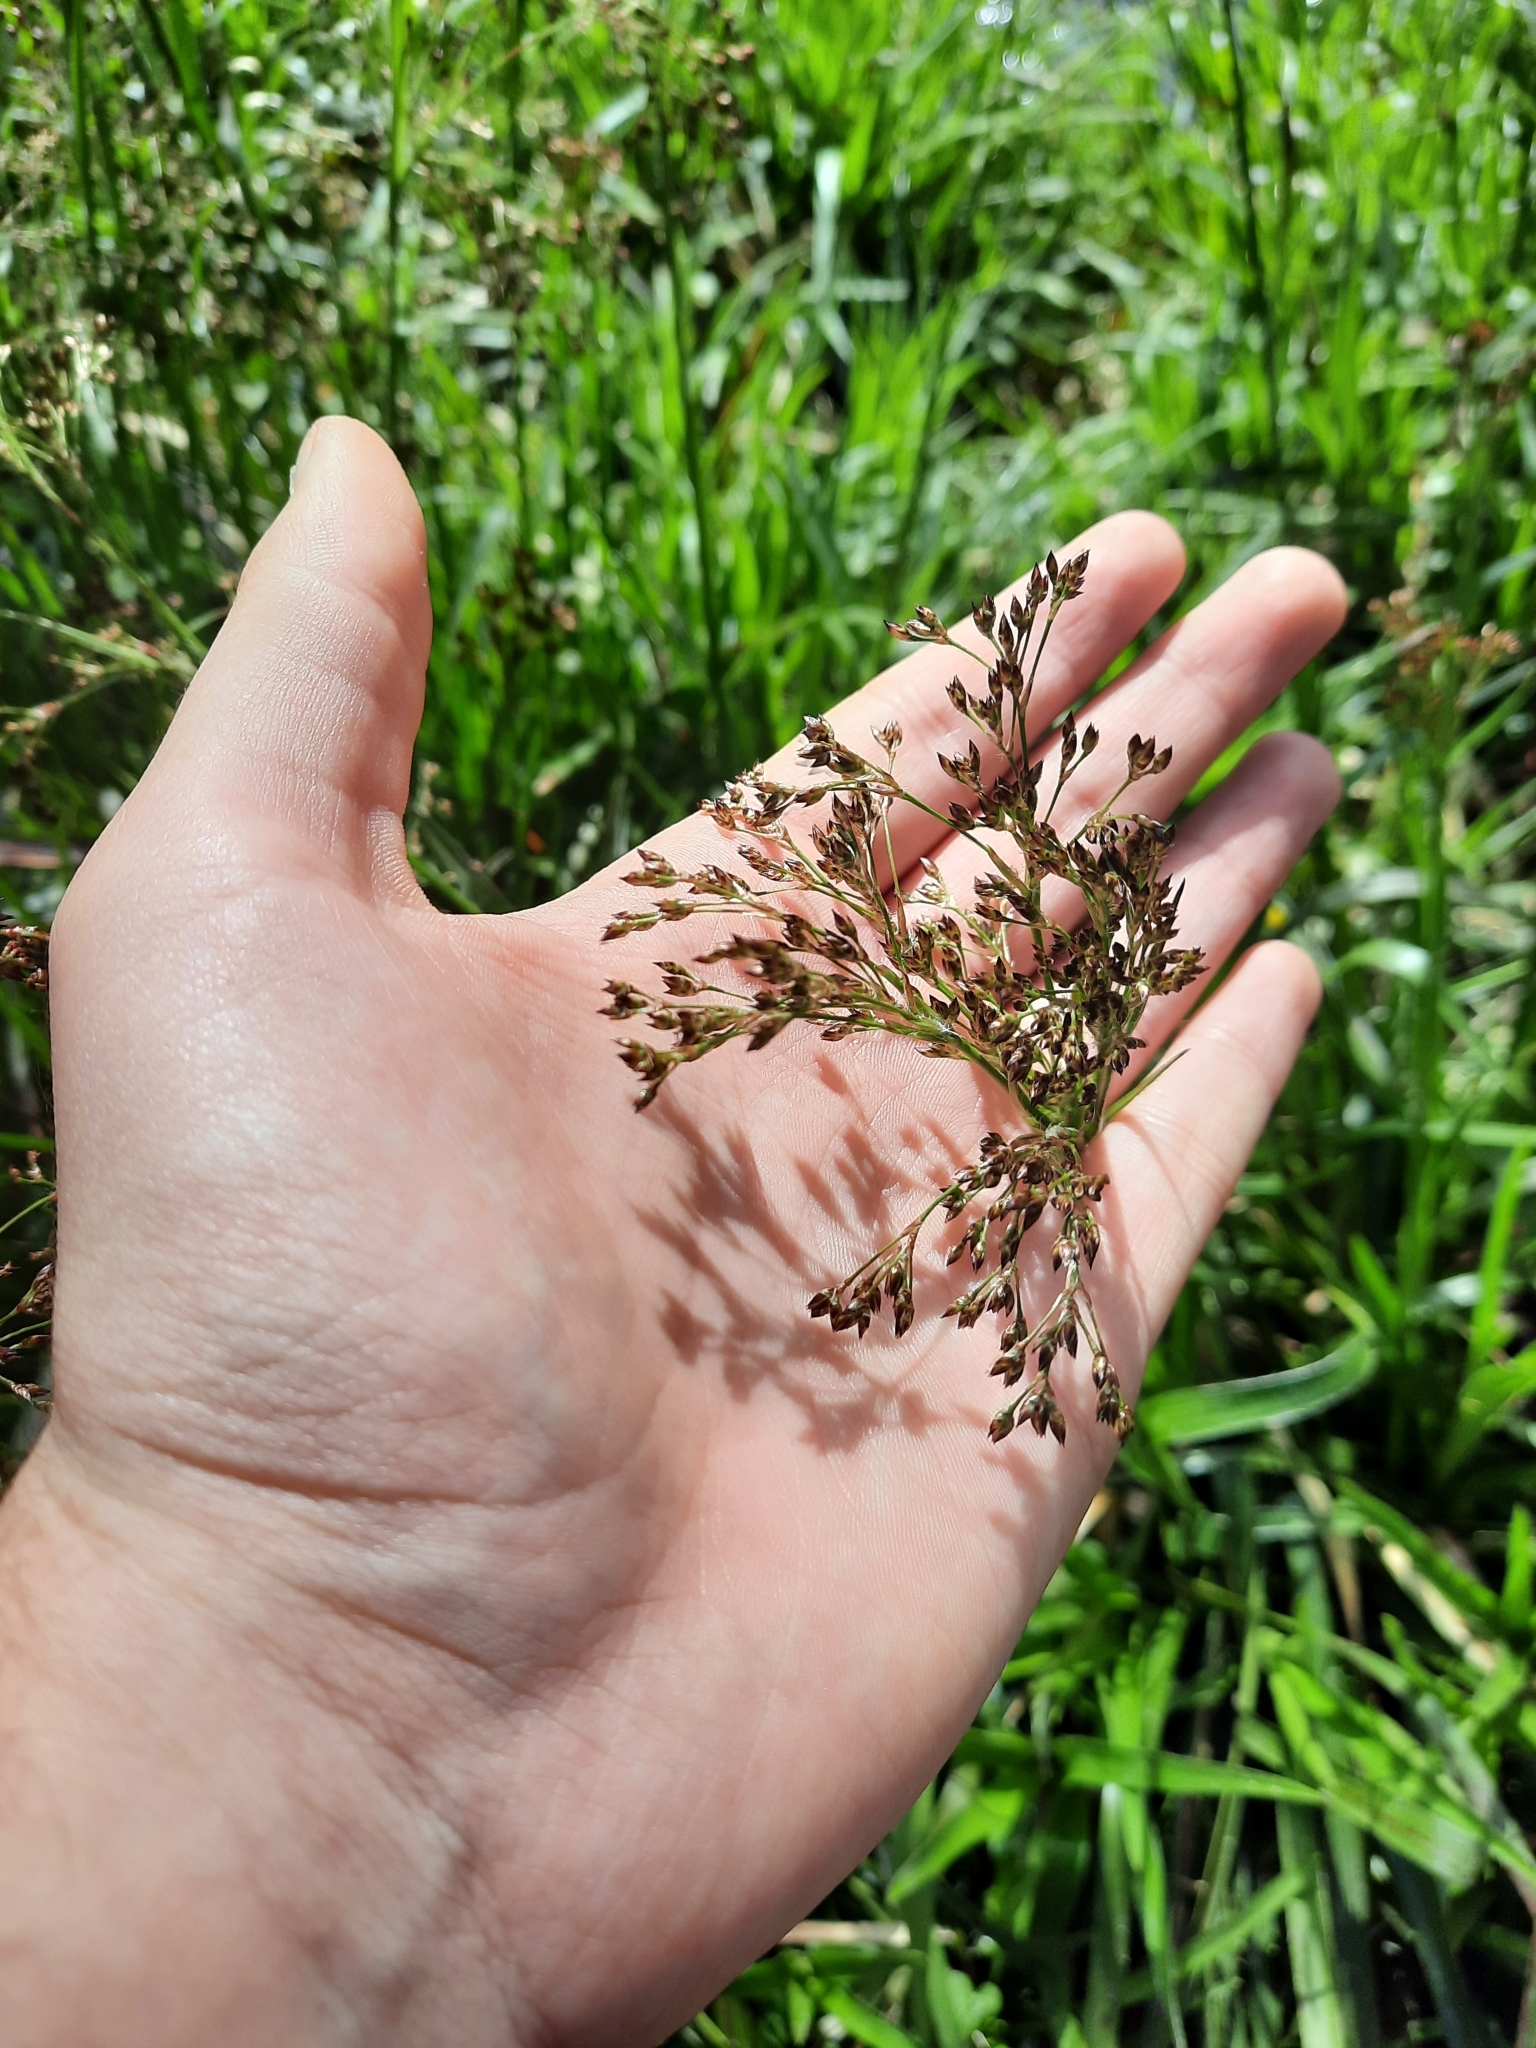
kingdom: Plantae
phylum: Tracheophyta
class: Liliopsida
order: Poales
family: Juncaceae
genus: Luzula
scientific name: Luzula sylvatica
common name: Great wood-rush
